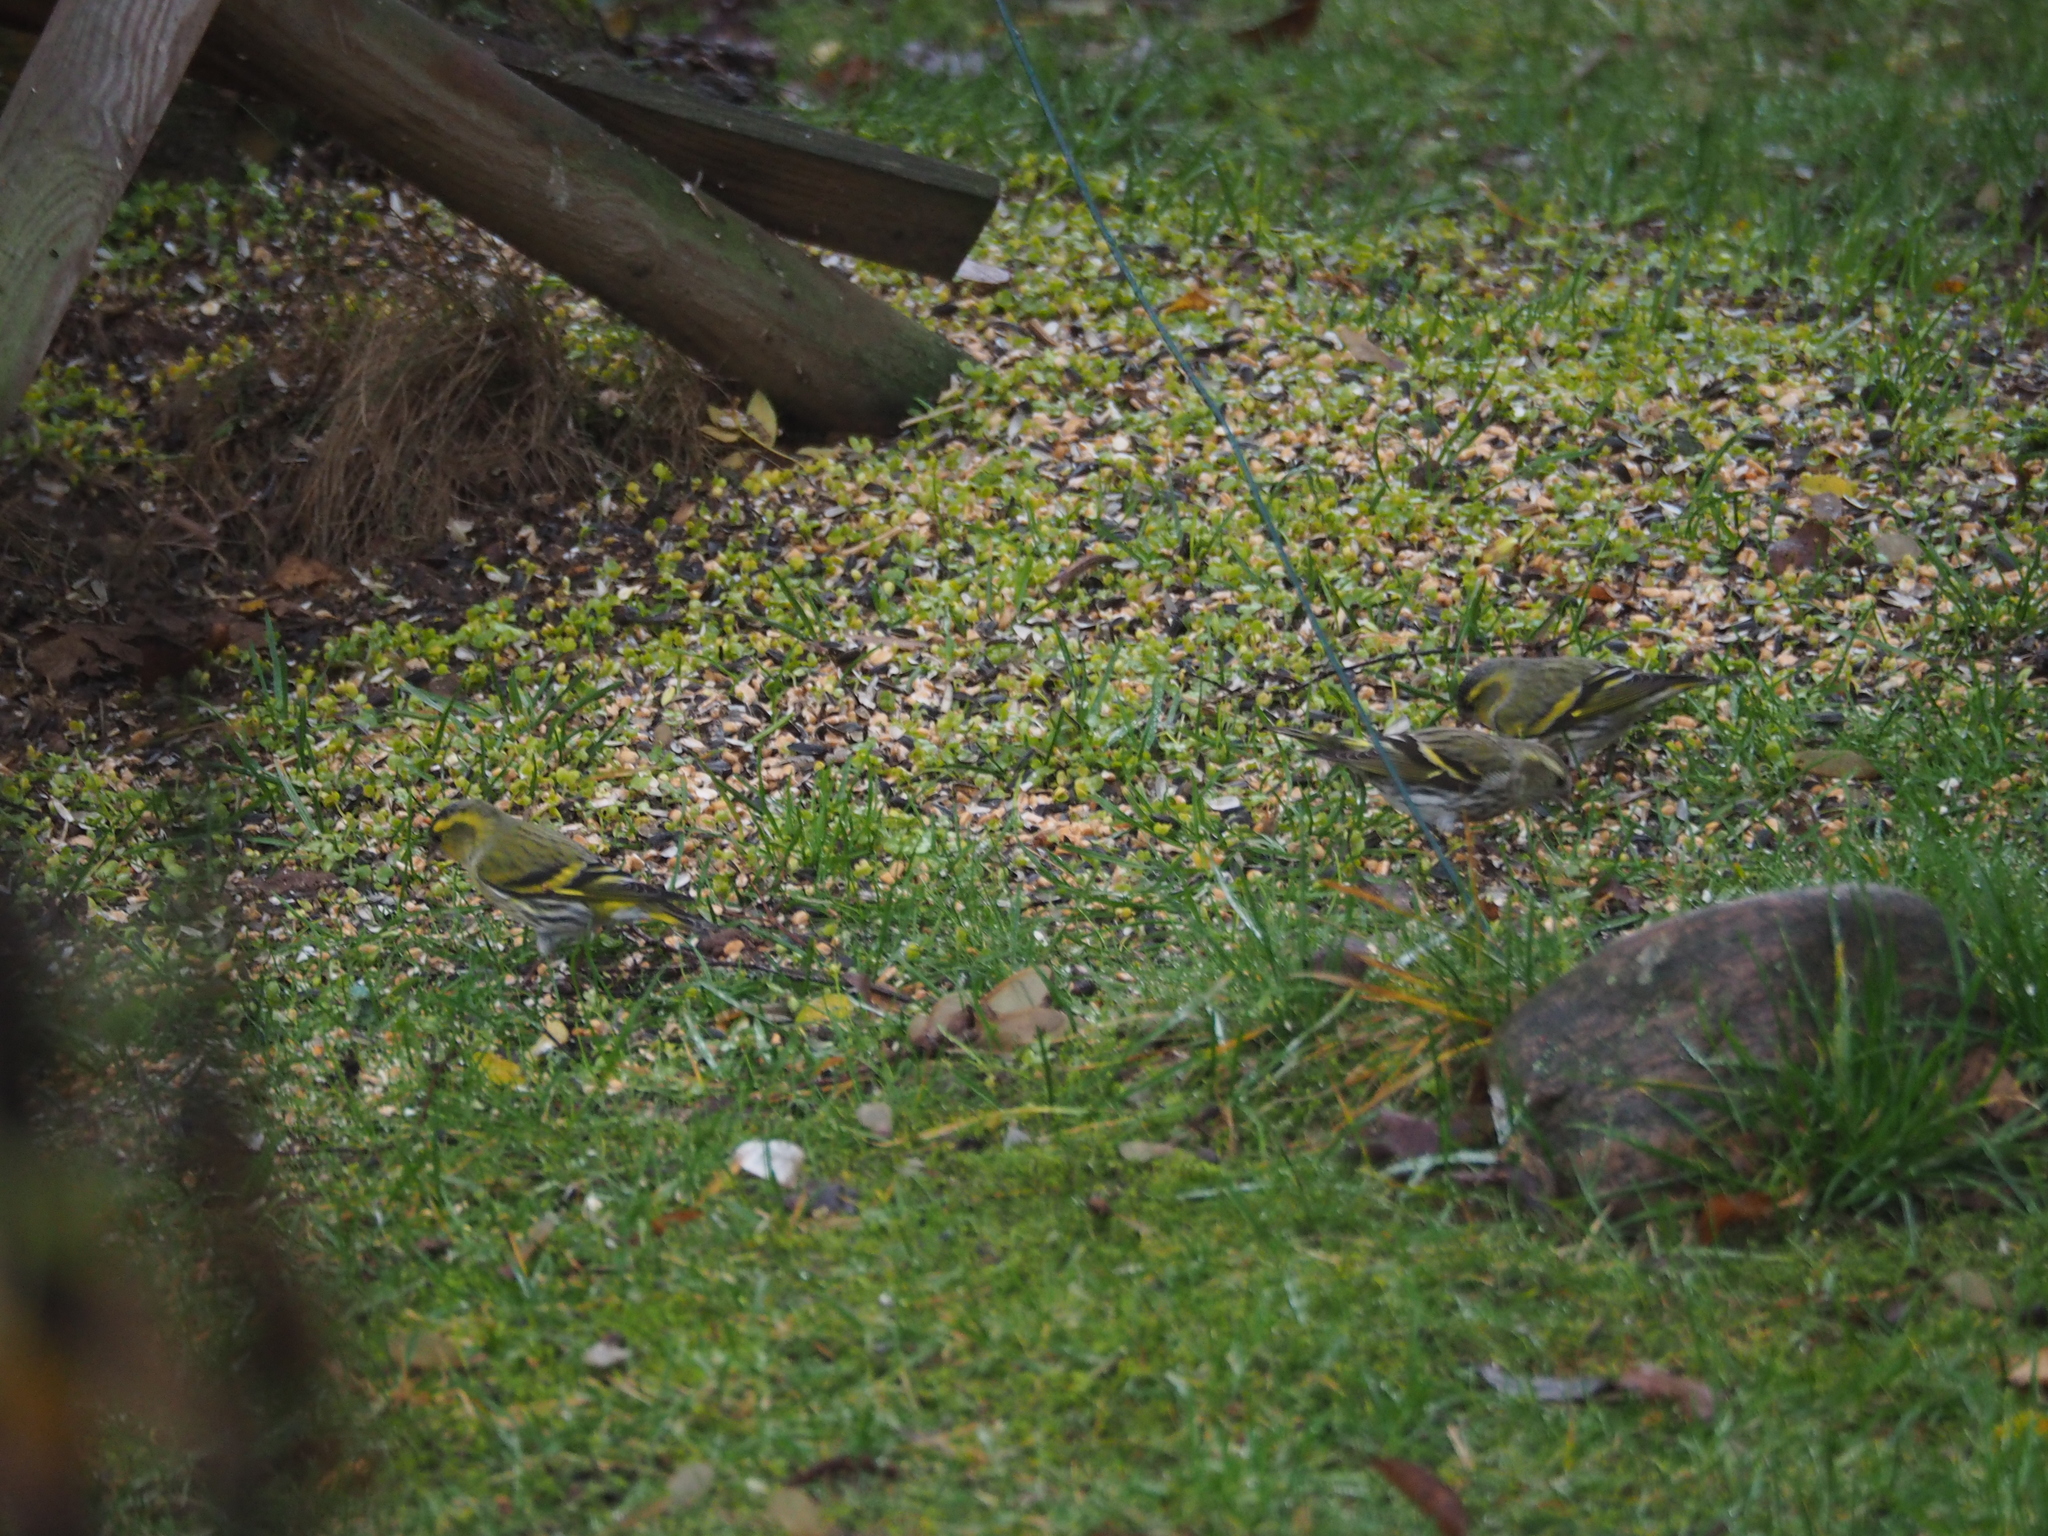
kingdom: Animalia
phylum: Chordata
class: Aves
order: Passeriformes
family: Fringillidae
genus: Spinus
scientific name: Spinus spinus
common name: Eurasian siskin
